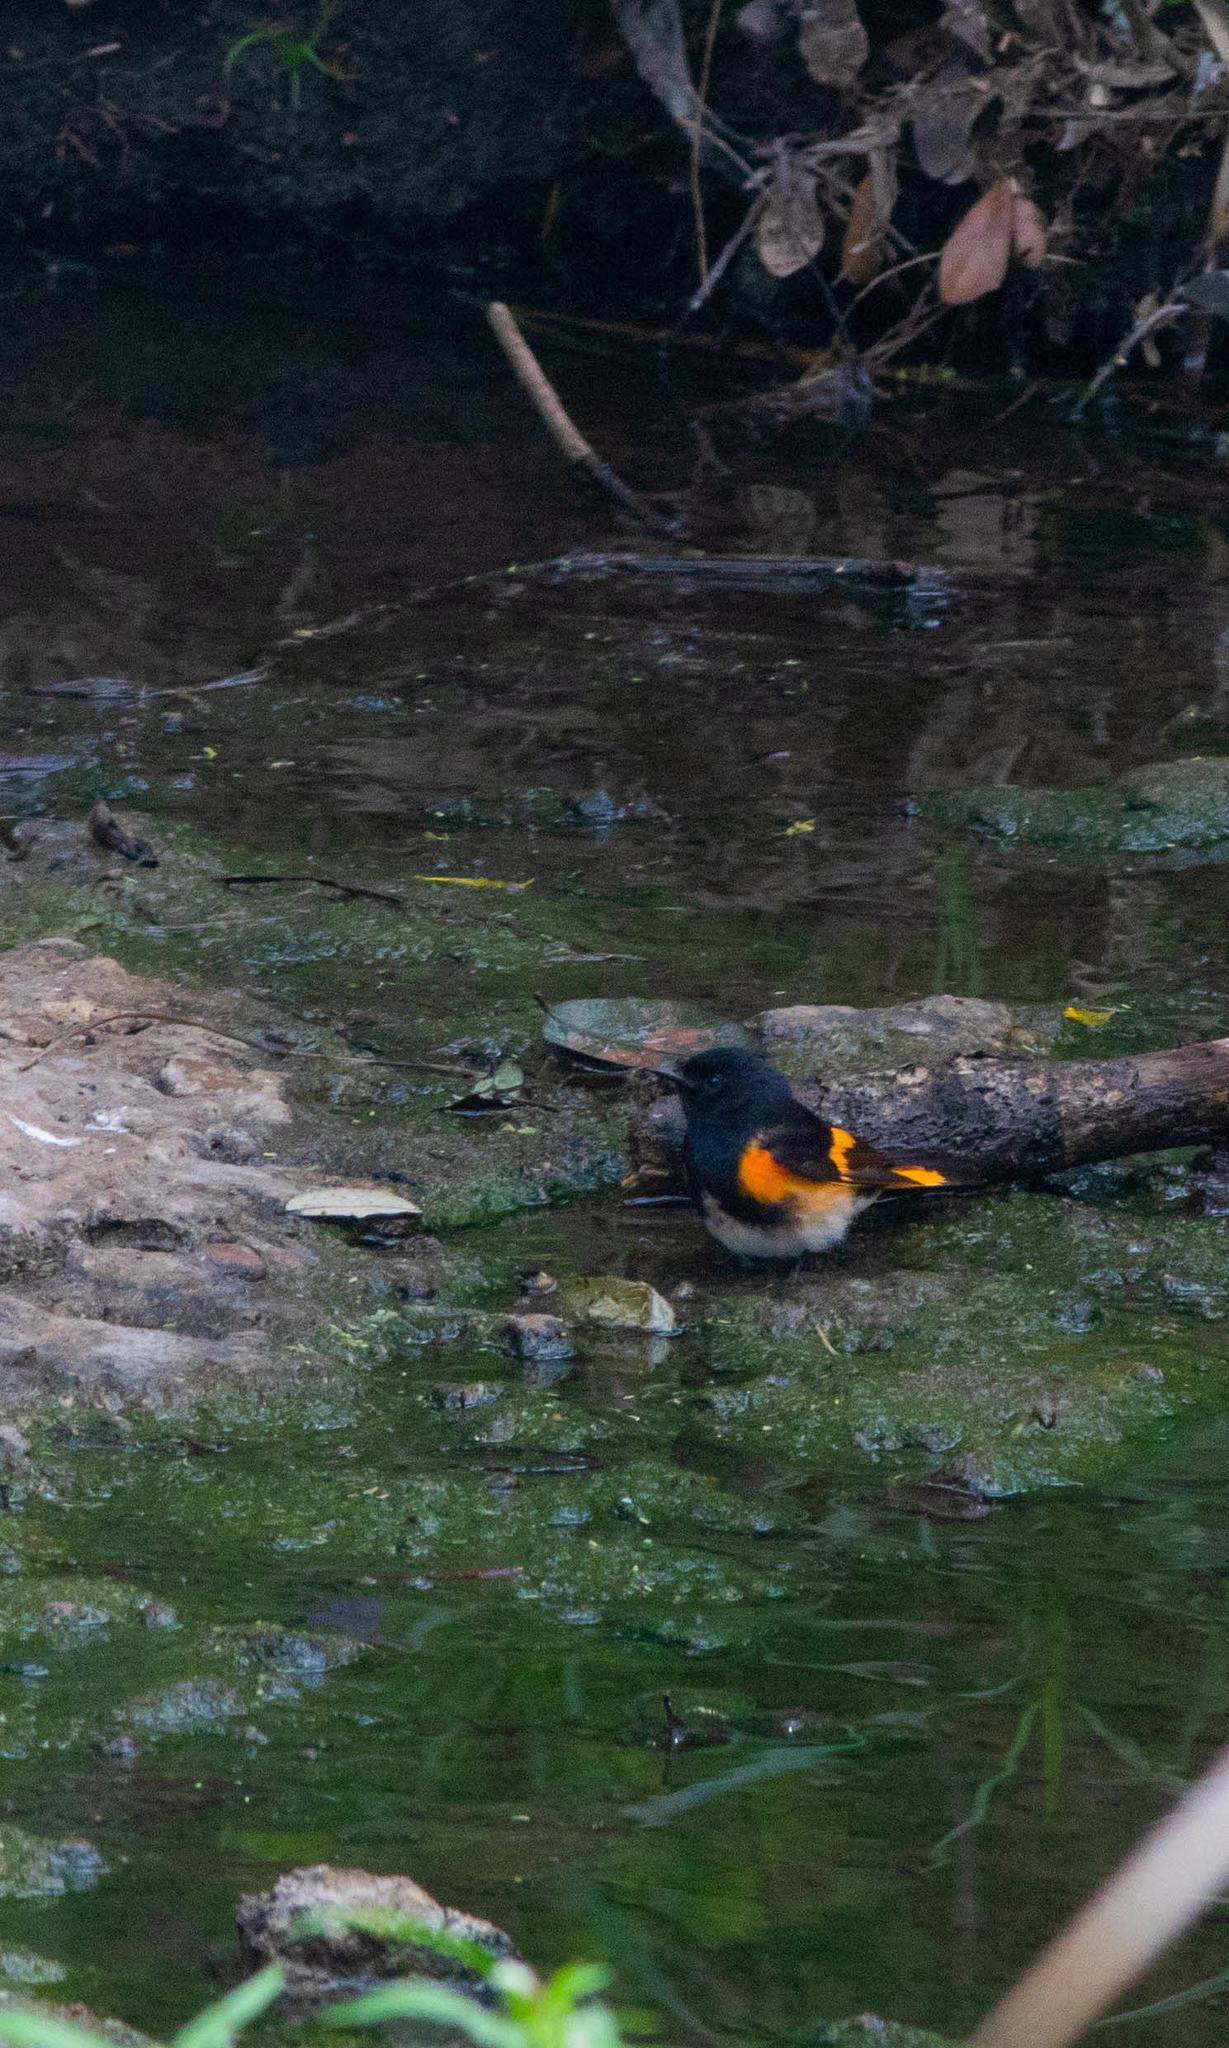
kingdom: Animalia
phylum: Chordata
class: Aves
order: Passeriformes
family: Parulidae
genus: Setophaga
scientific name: Setophaga ruticilla
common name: American redstart
